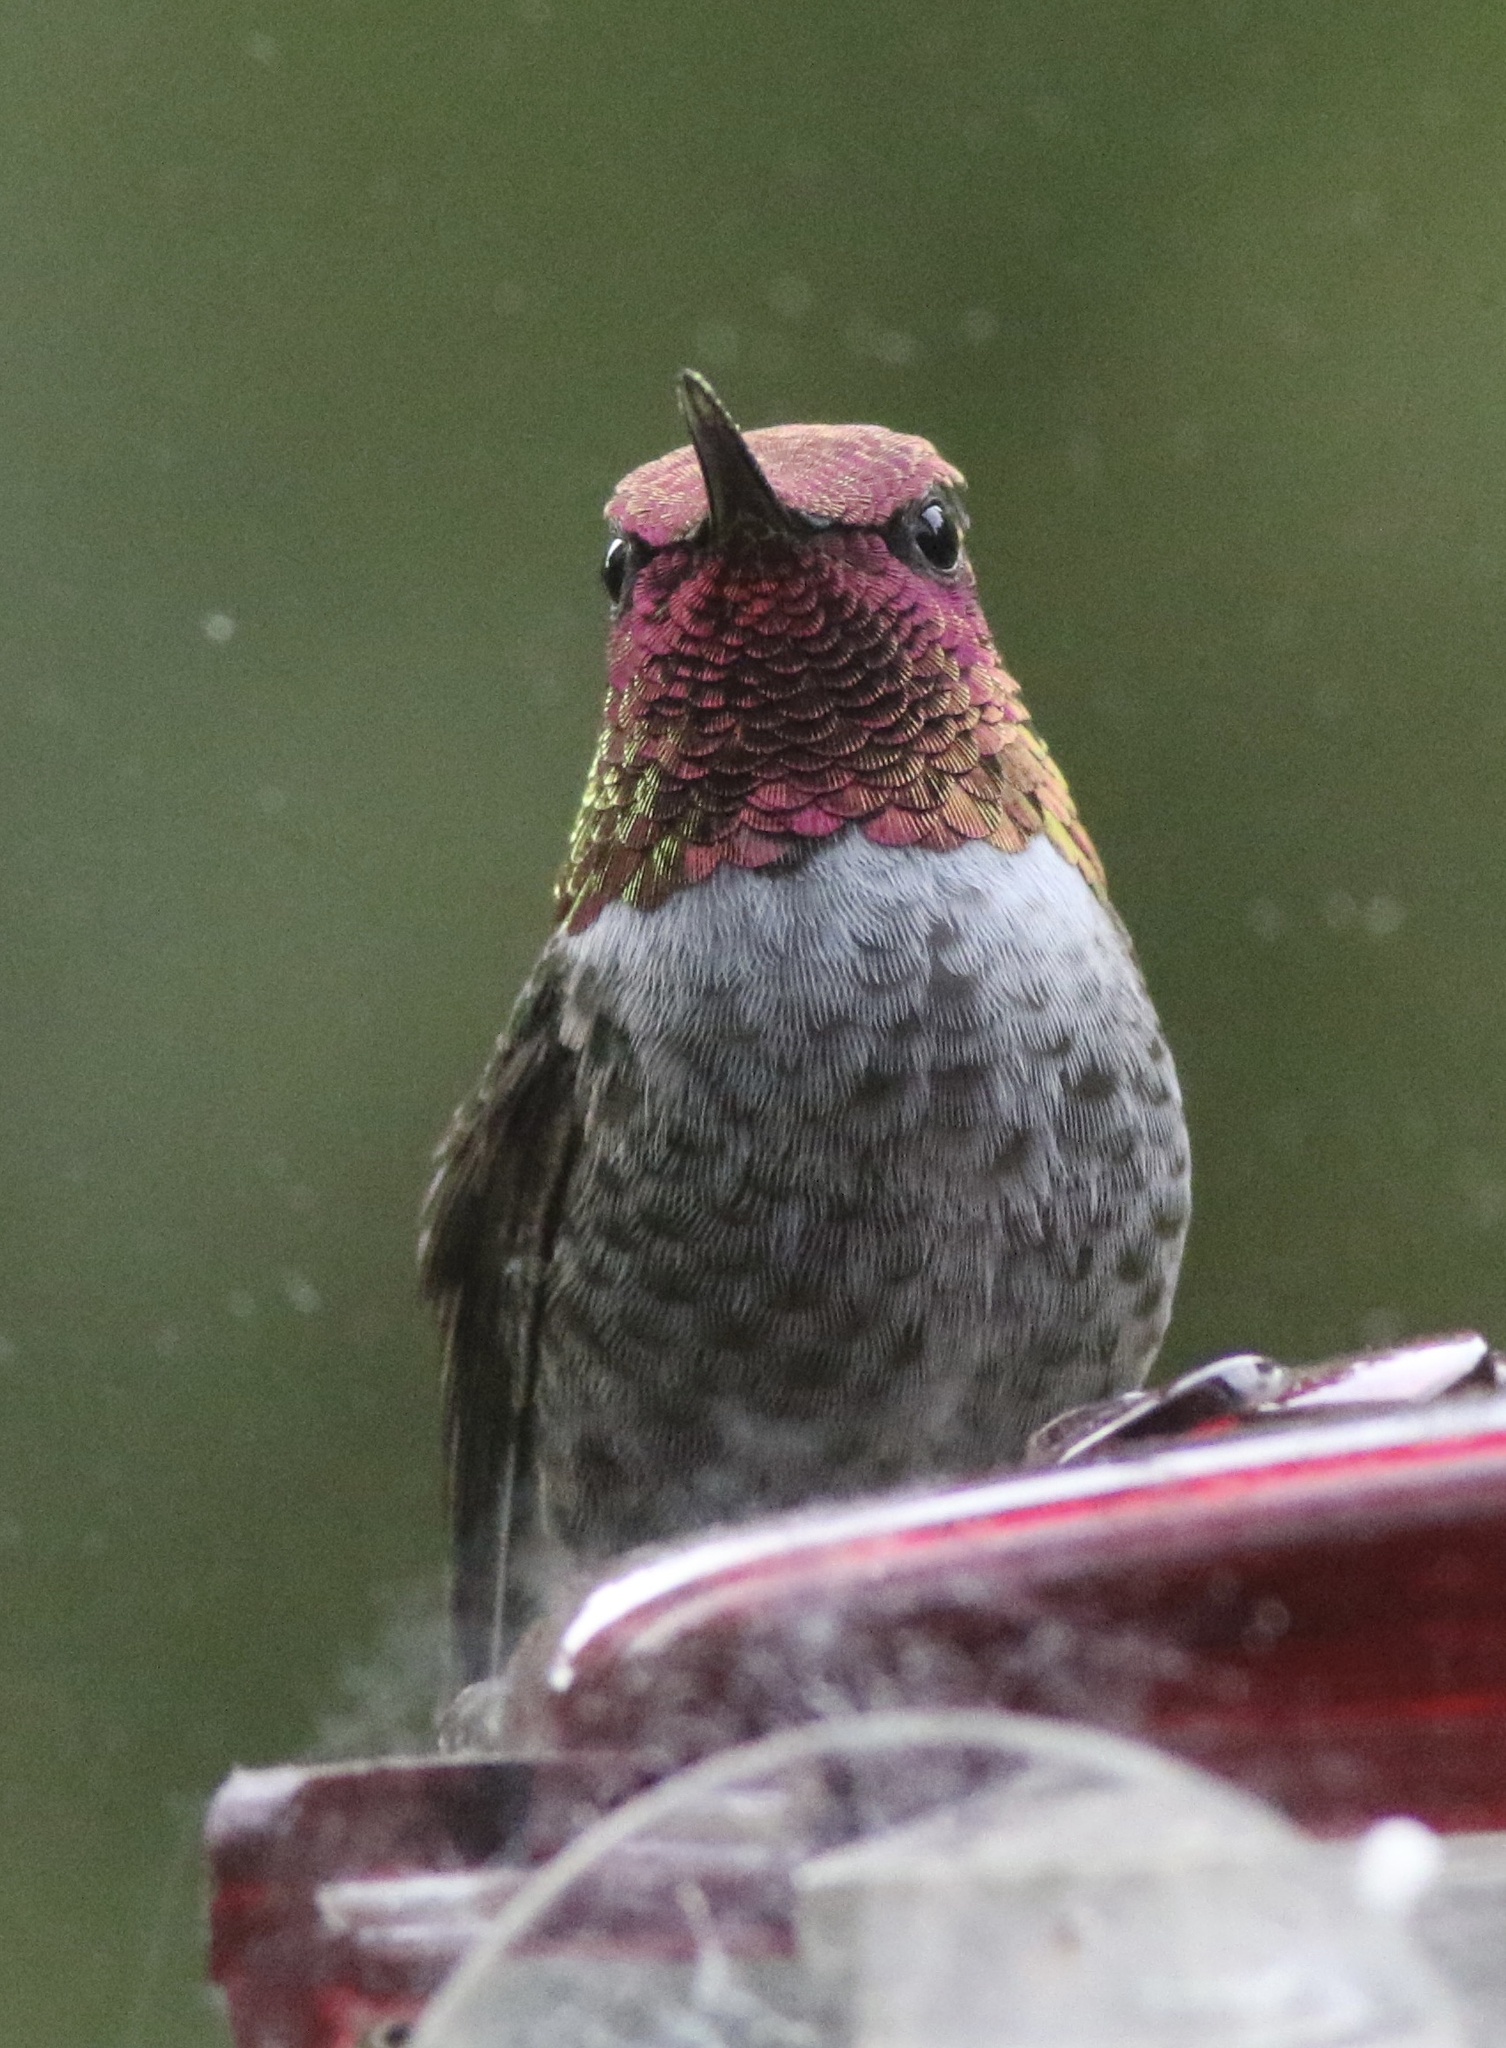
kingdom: Animalia
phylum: Chordata
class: Aves
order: Apodiformes
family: Trochilidae
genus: Calypte
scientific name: Calypte anna
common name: Anna's hummingbird
